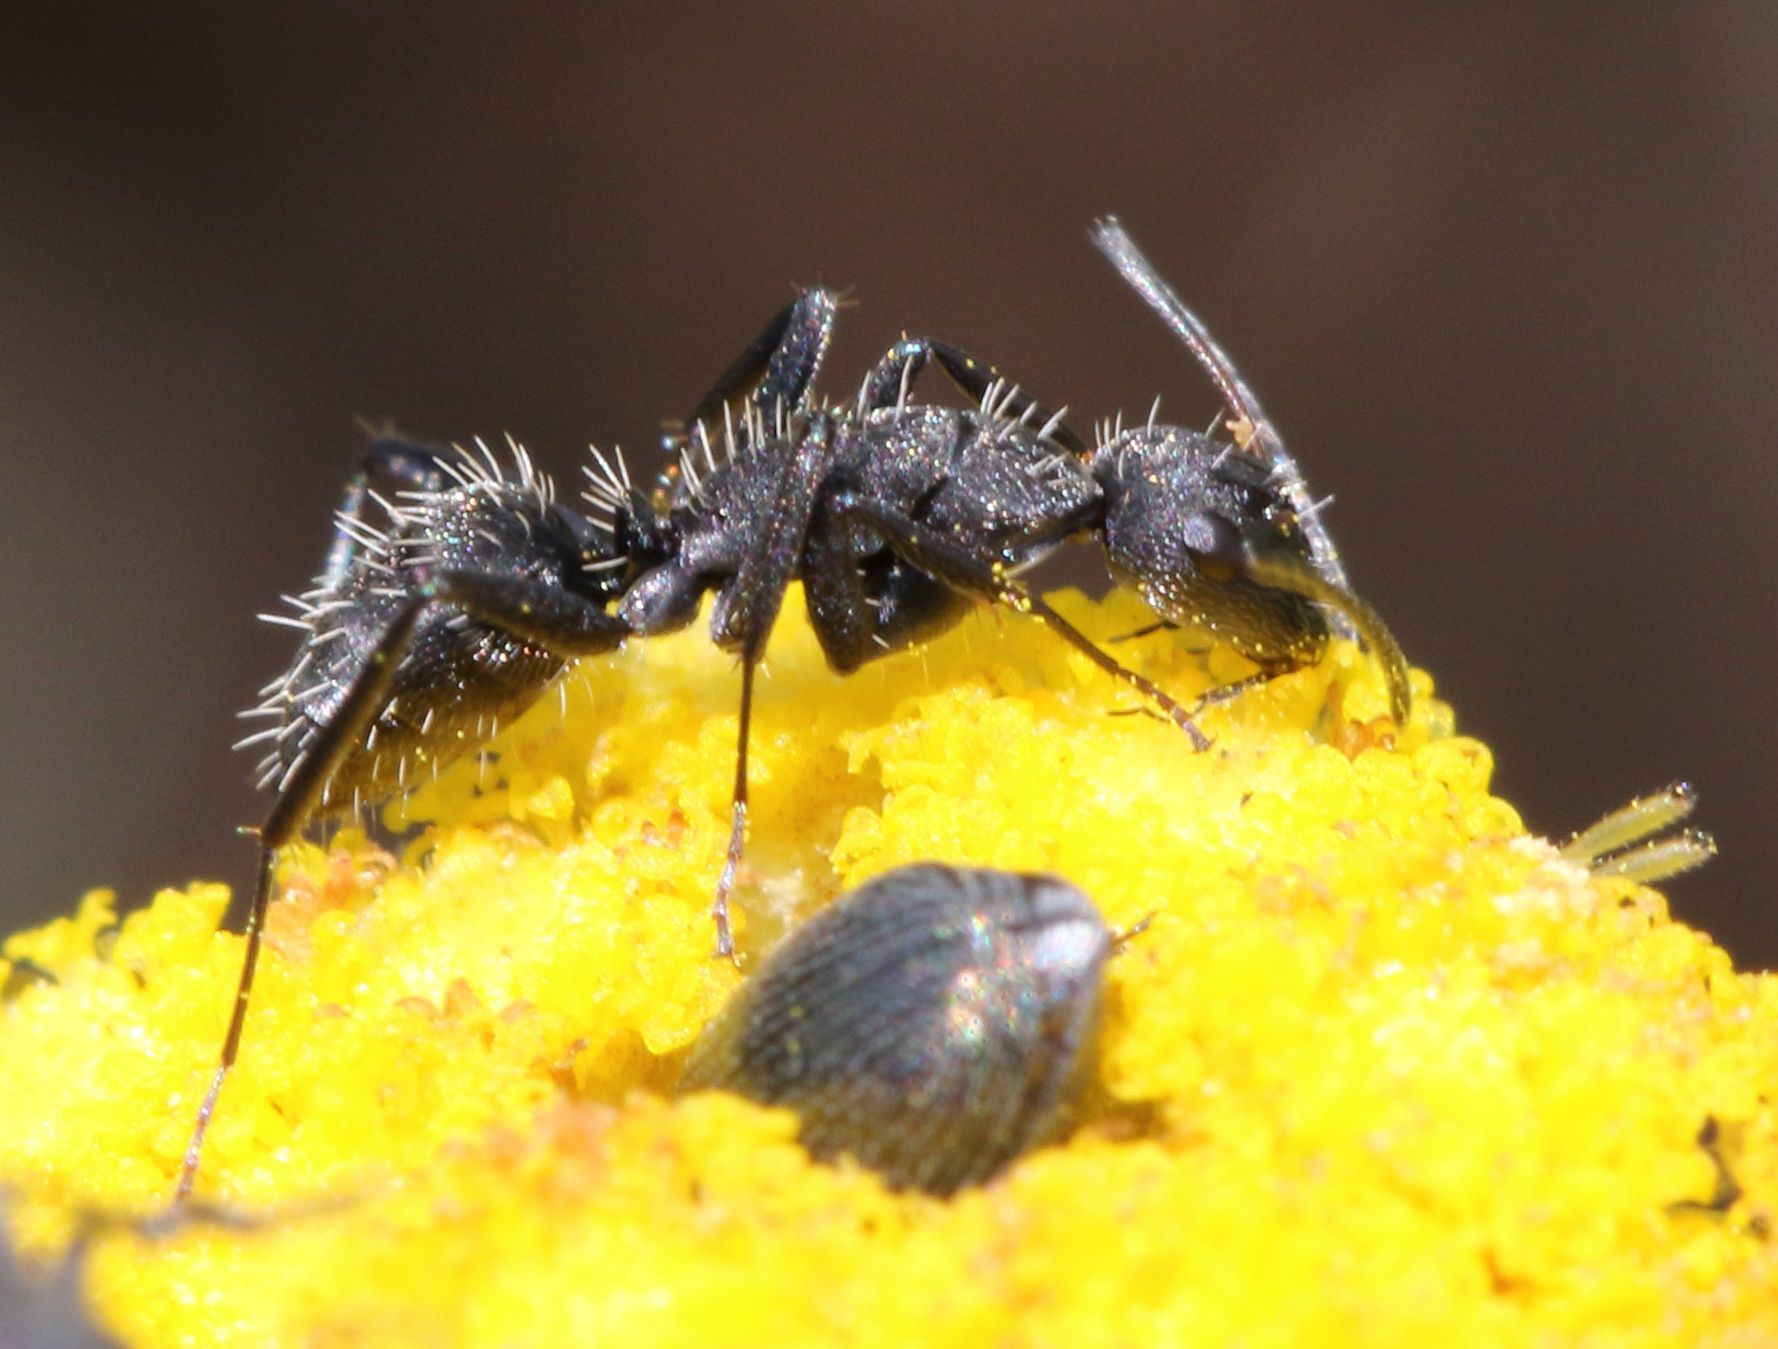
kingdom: Animalia
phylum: Arthropoda
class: Insecta
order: Hymenoptera
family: Formicidae
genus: Camponotus
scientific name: Camponotus niveosetosus
